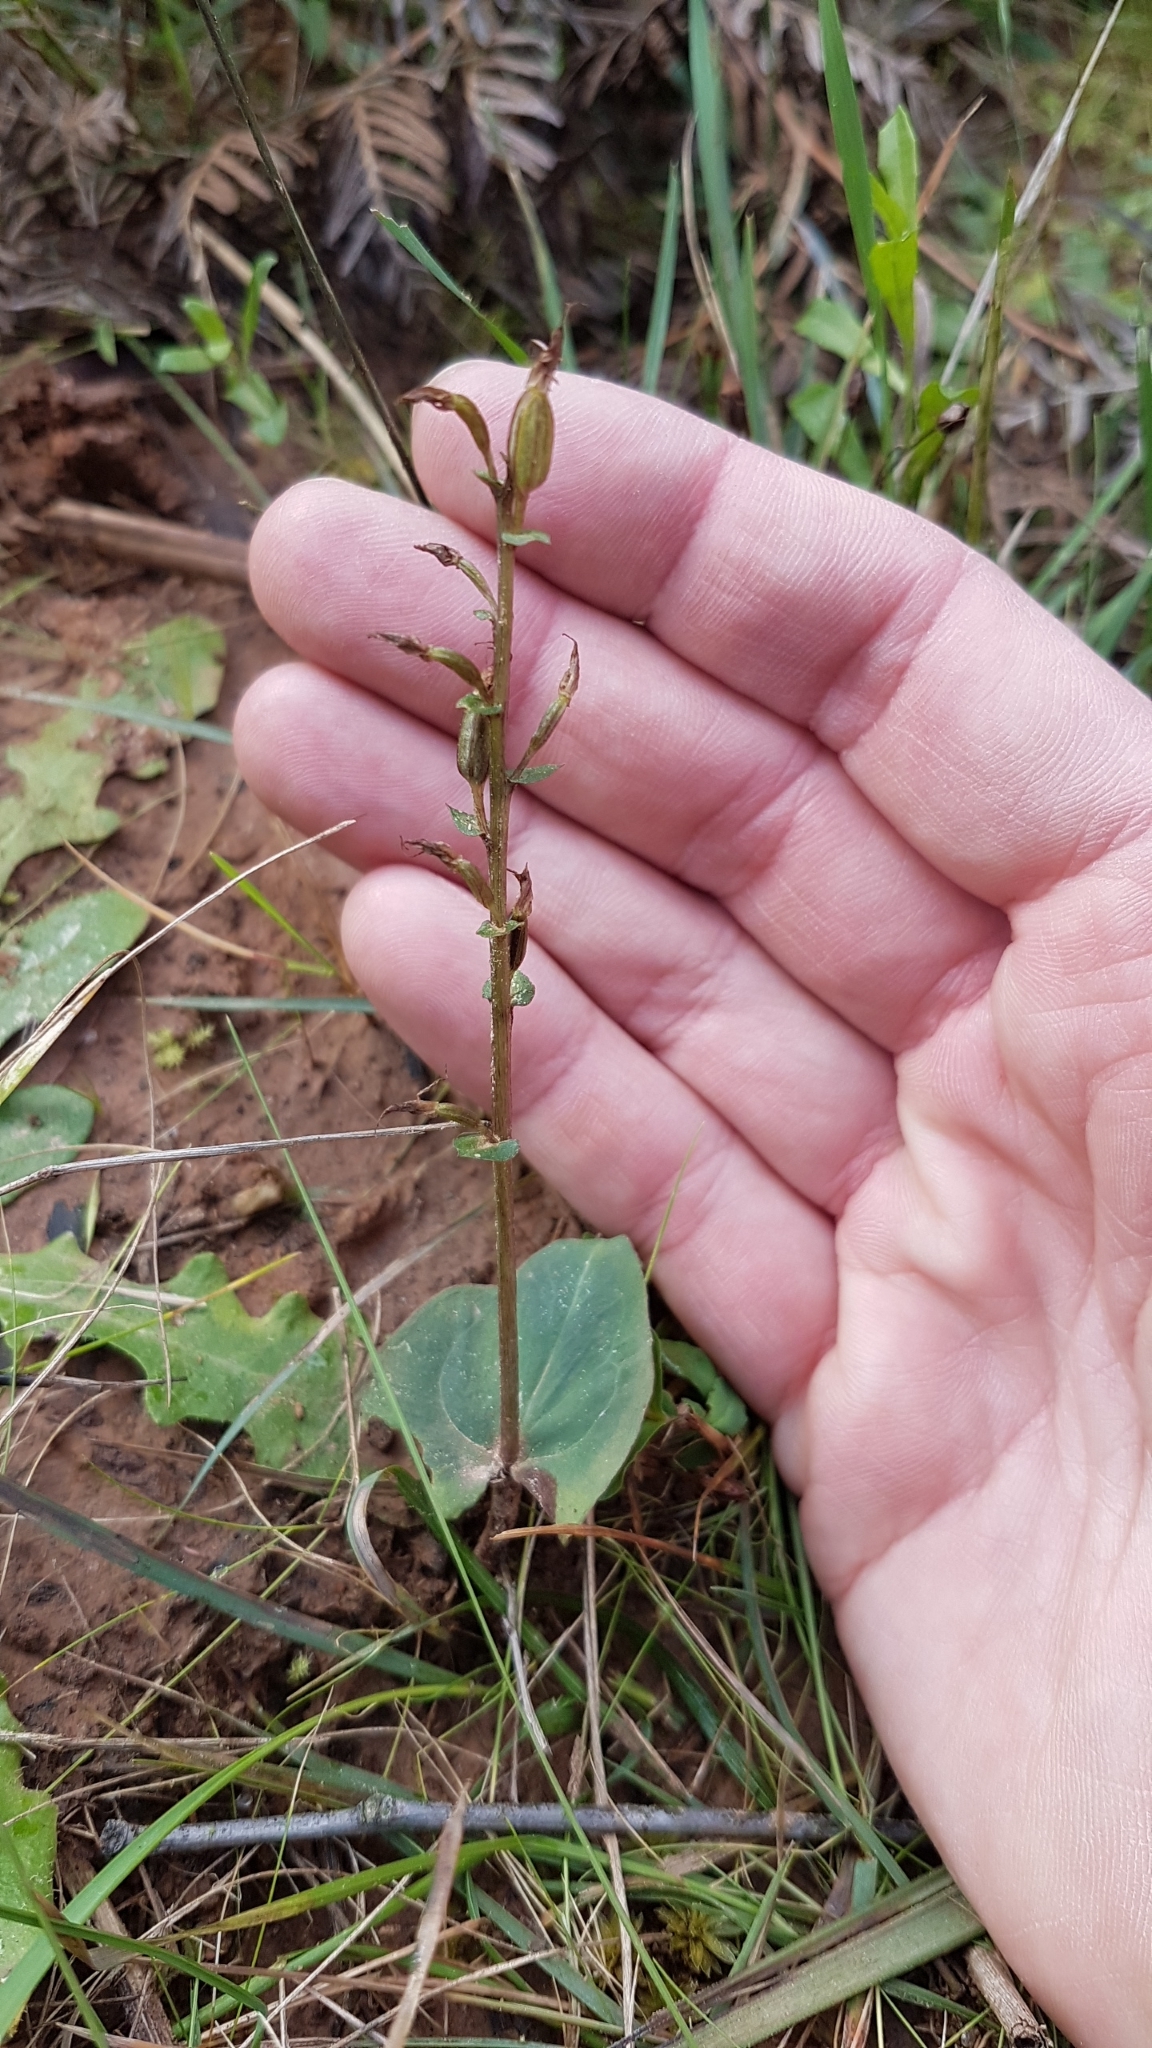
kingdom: Plantae
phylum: Tracheophyta
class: Liliopsida
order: Asparagales
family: Orchidaceae
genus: Acianthus
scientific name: Acianthus pusillus
